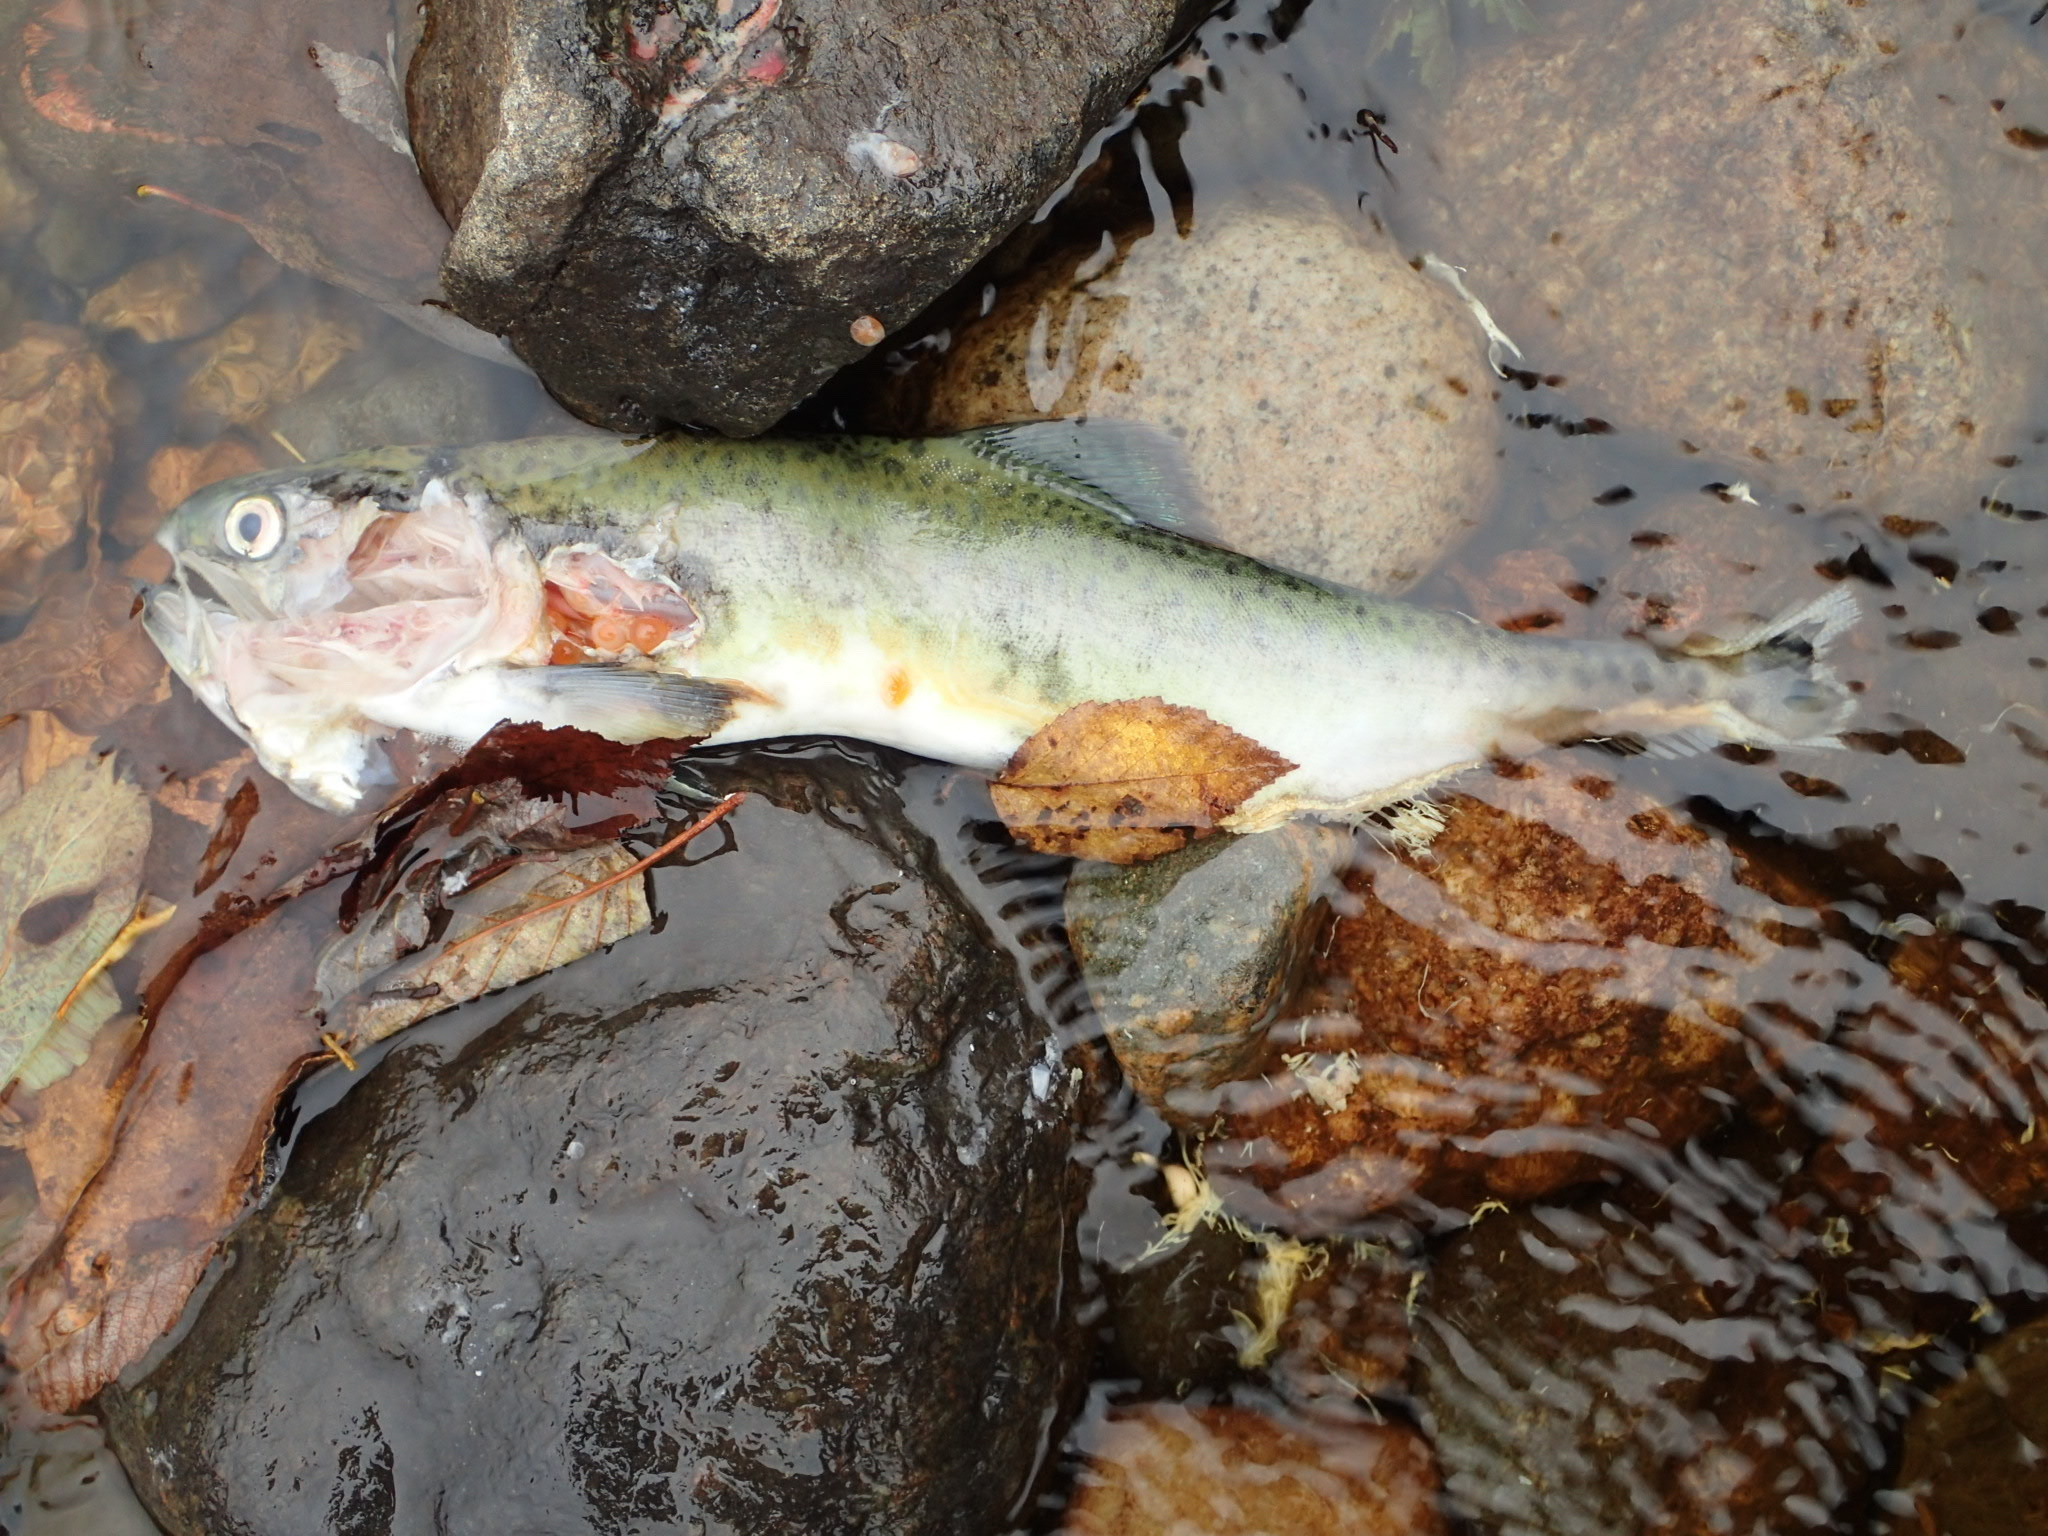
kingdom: Animalia
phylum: Chordata
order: Salmoniformes
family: Salmonidae
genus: Oncorhynchus
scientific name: Oncorhynchus gorbuscha
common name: Humpback salmon
